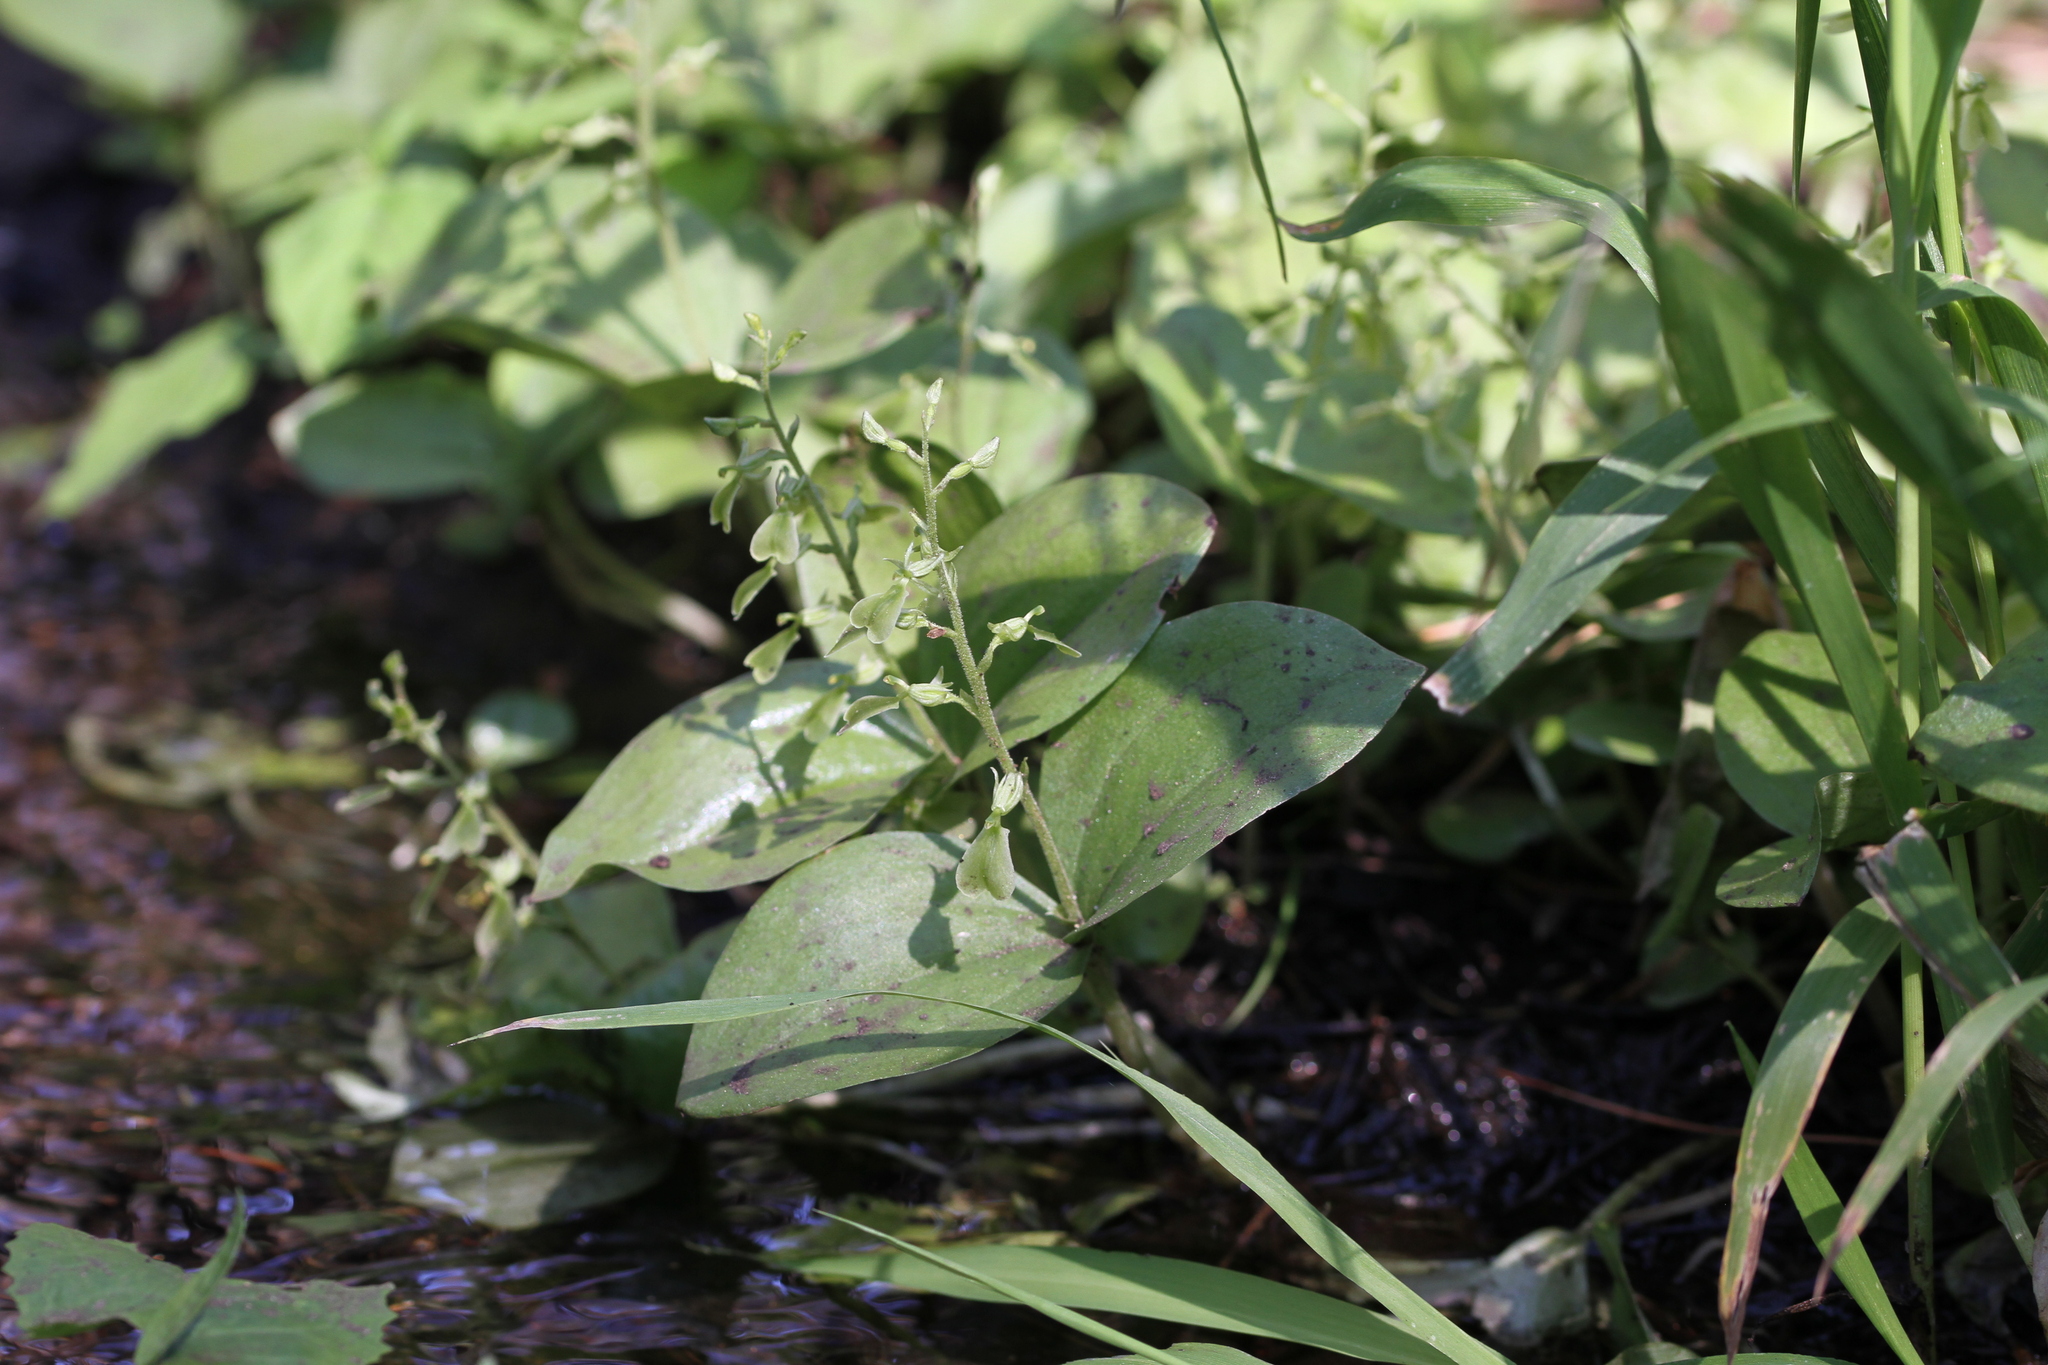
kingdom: Plantae
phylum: Tracheophyta
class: Liliopsida
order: Asparagales
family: Orchidaceae
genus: Neottia
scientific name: Neottia convallarioides
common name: Broadleaf twayblade
